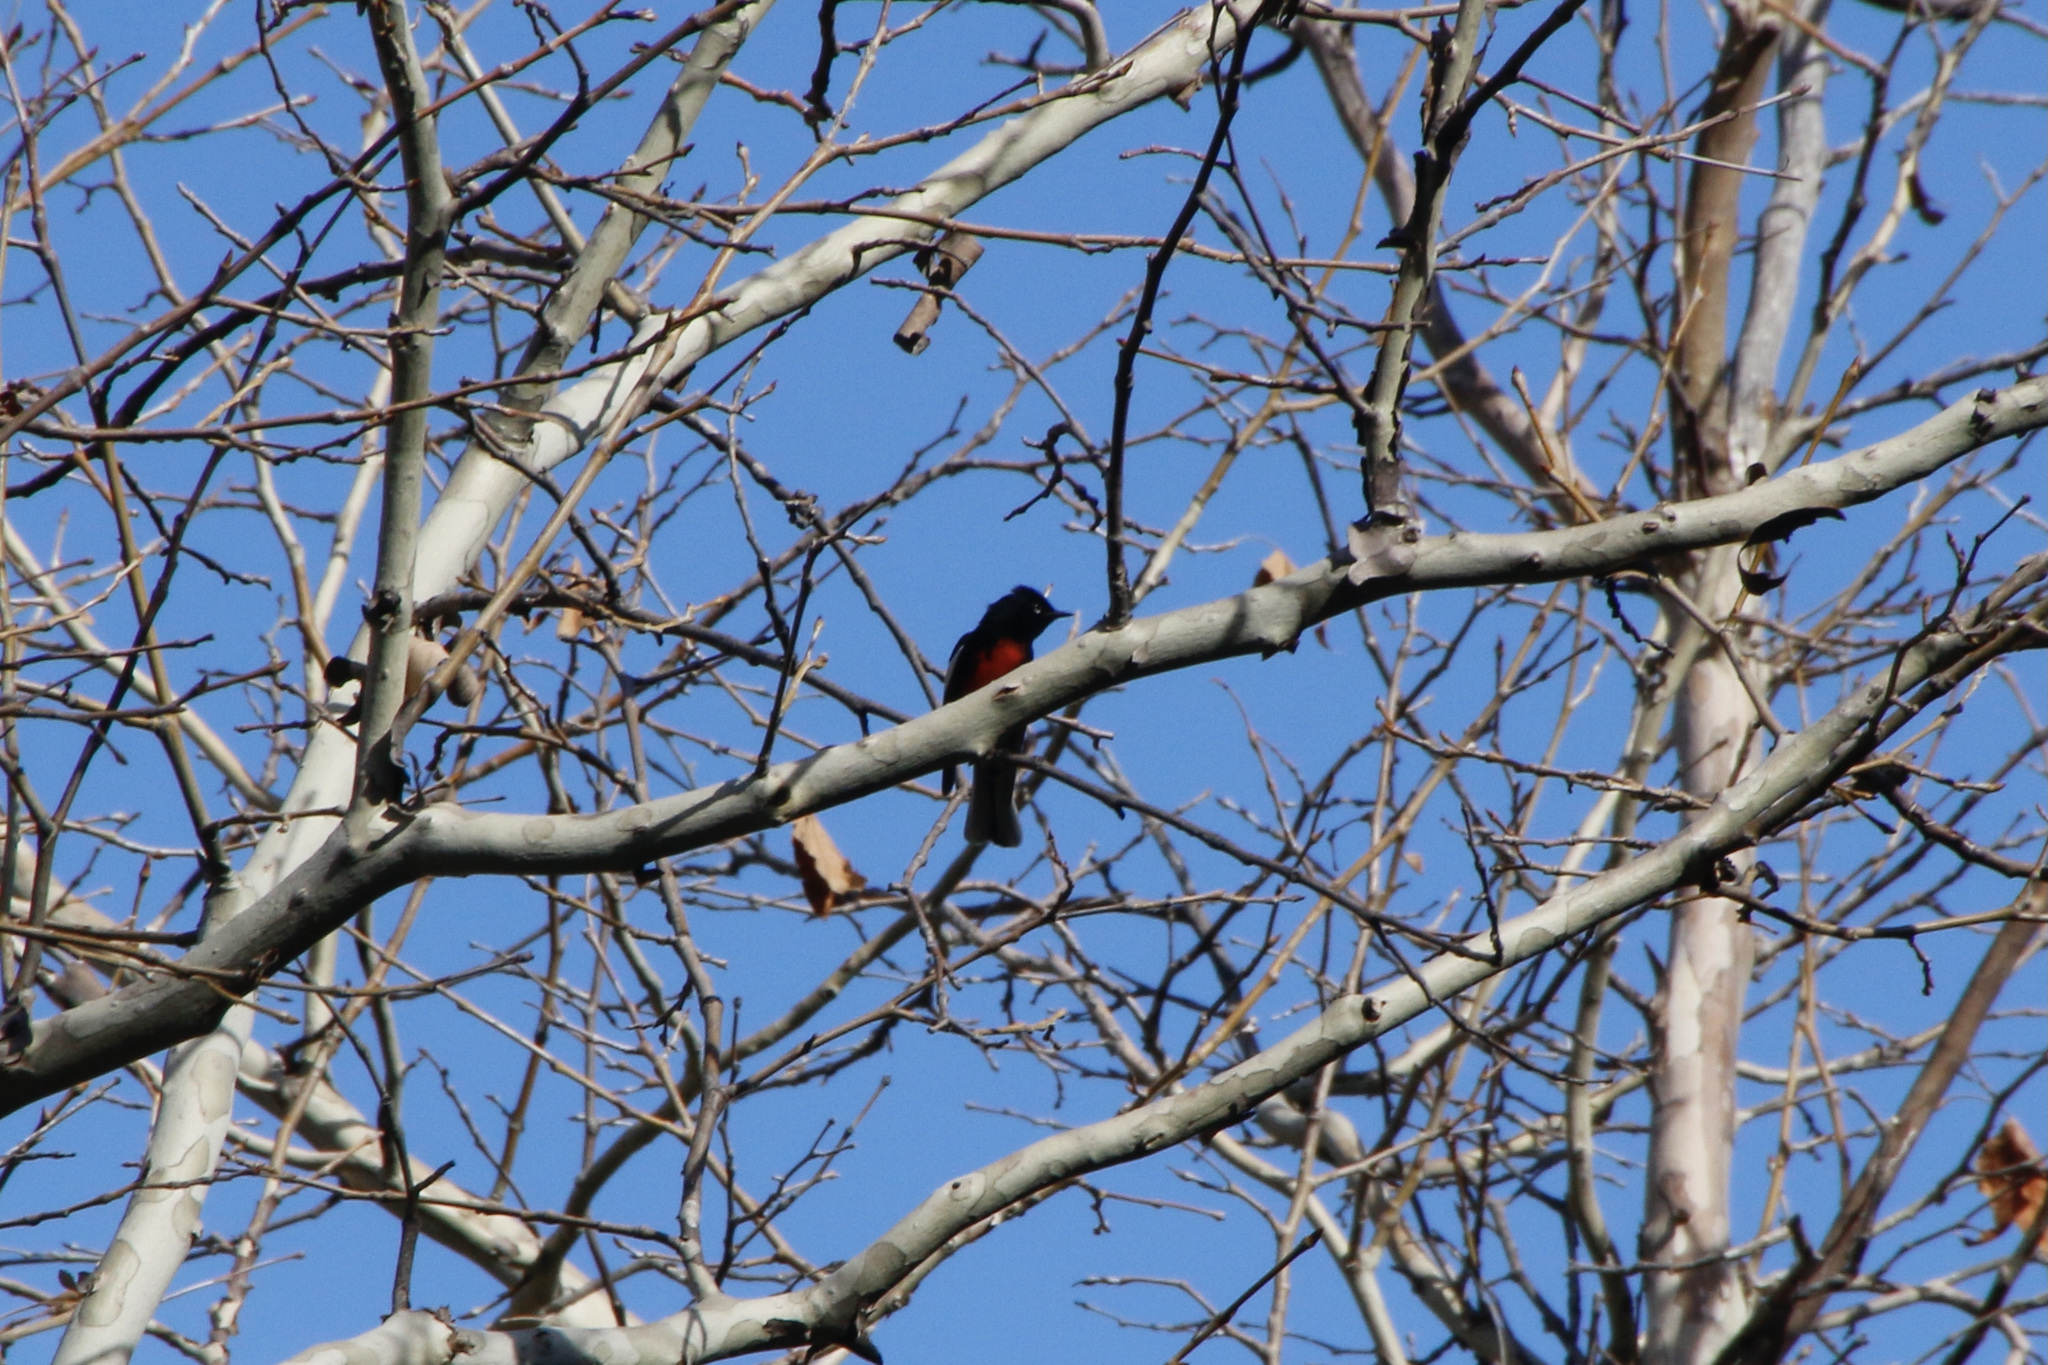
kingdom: Animalia
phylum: Chordata
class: Aves
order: Passeriformes
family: Parulidae
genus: Myioborus
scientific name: Myioborus pictus
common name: Painted whitestart
